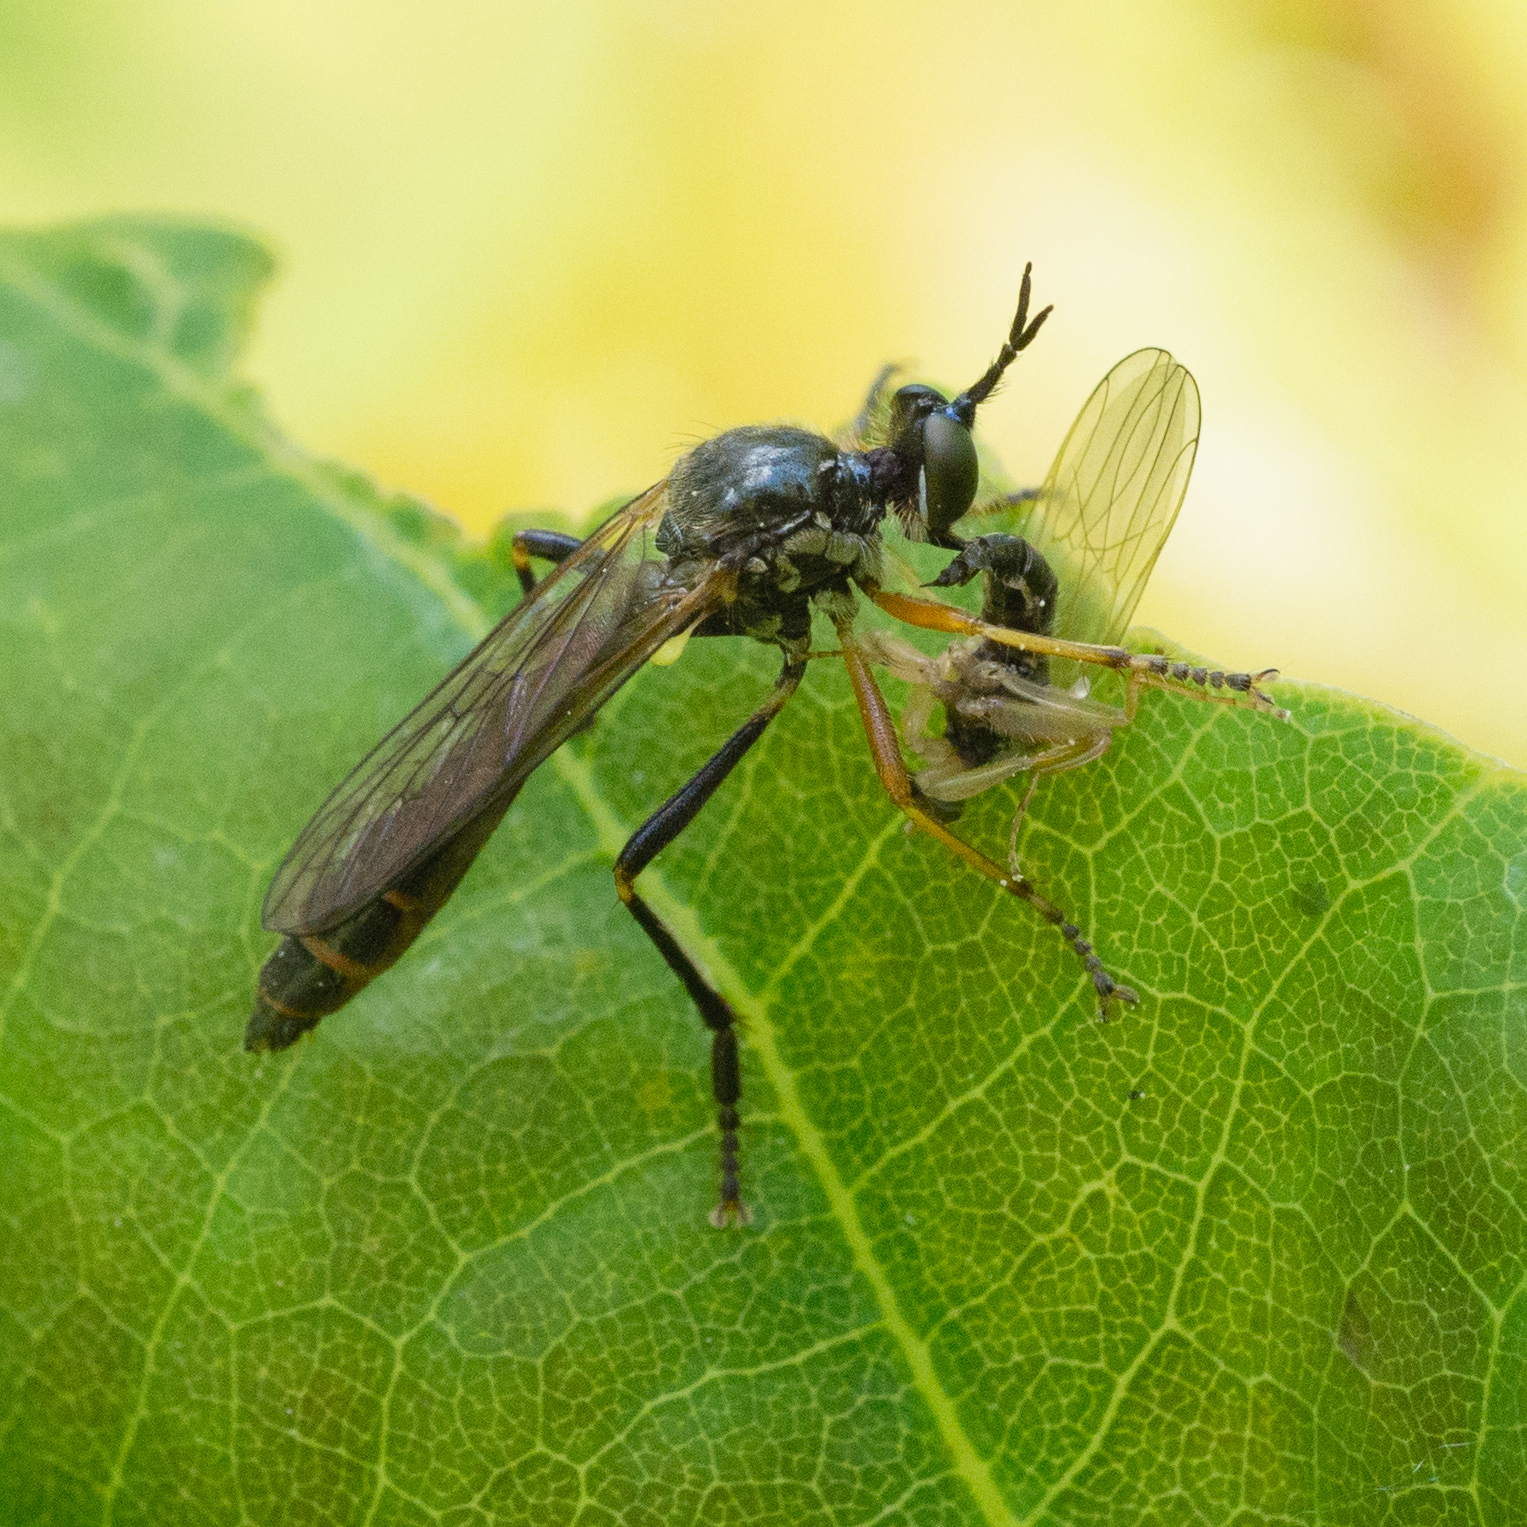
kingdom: Animalia
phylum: Arthropoda
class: Insecta
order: Diptera
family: Asilidae
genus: Dioctria
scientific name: Dioctria rufipes
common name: Common red-legged robberfly
